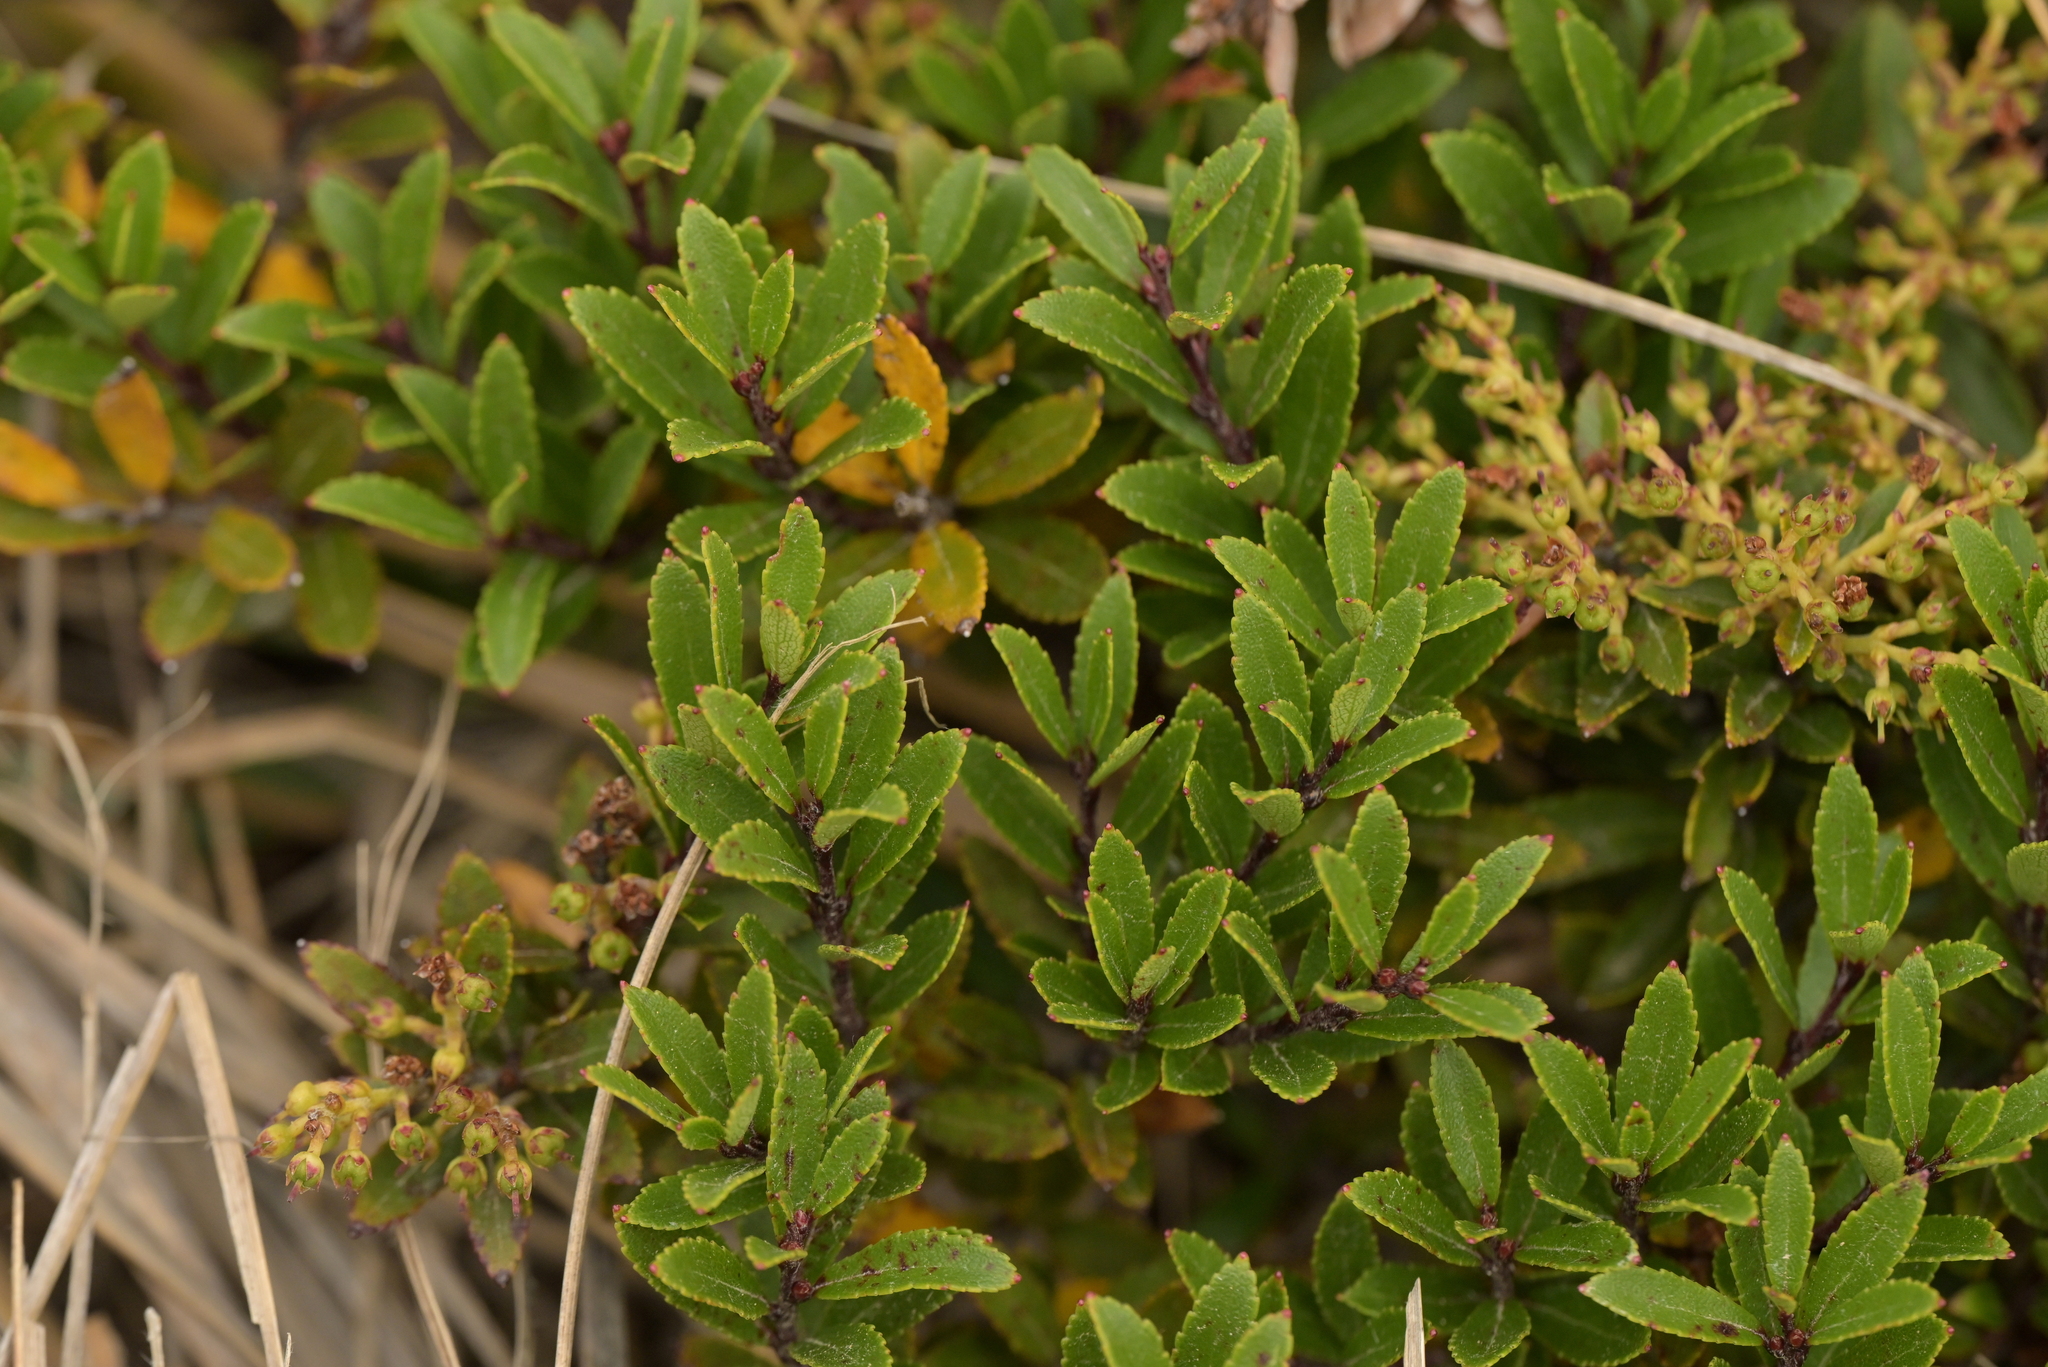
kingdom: Plantae
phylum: Tracheophyta
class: Magnoliopsida
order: Ericales
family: Ericaceae
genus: Gaultheria
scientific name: Gaultheria rupestris
